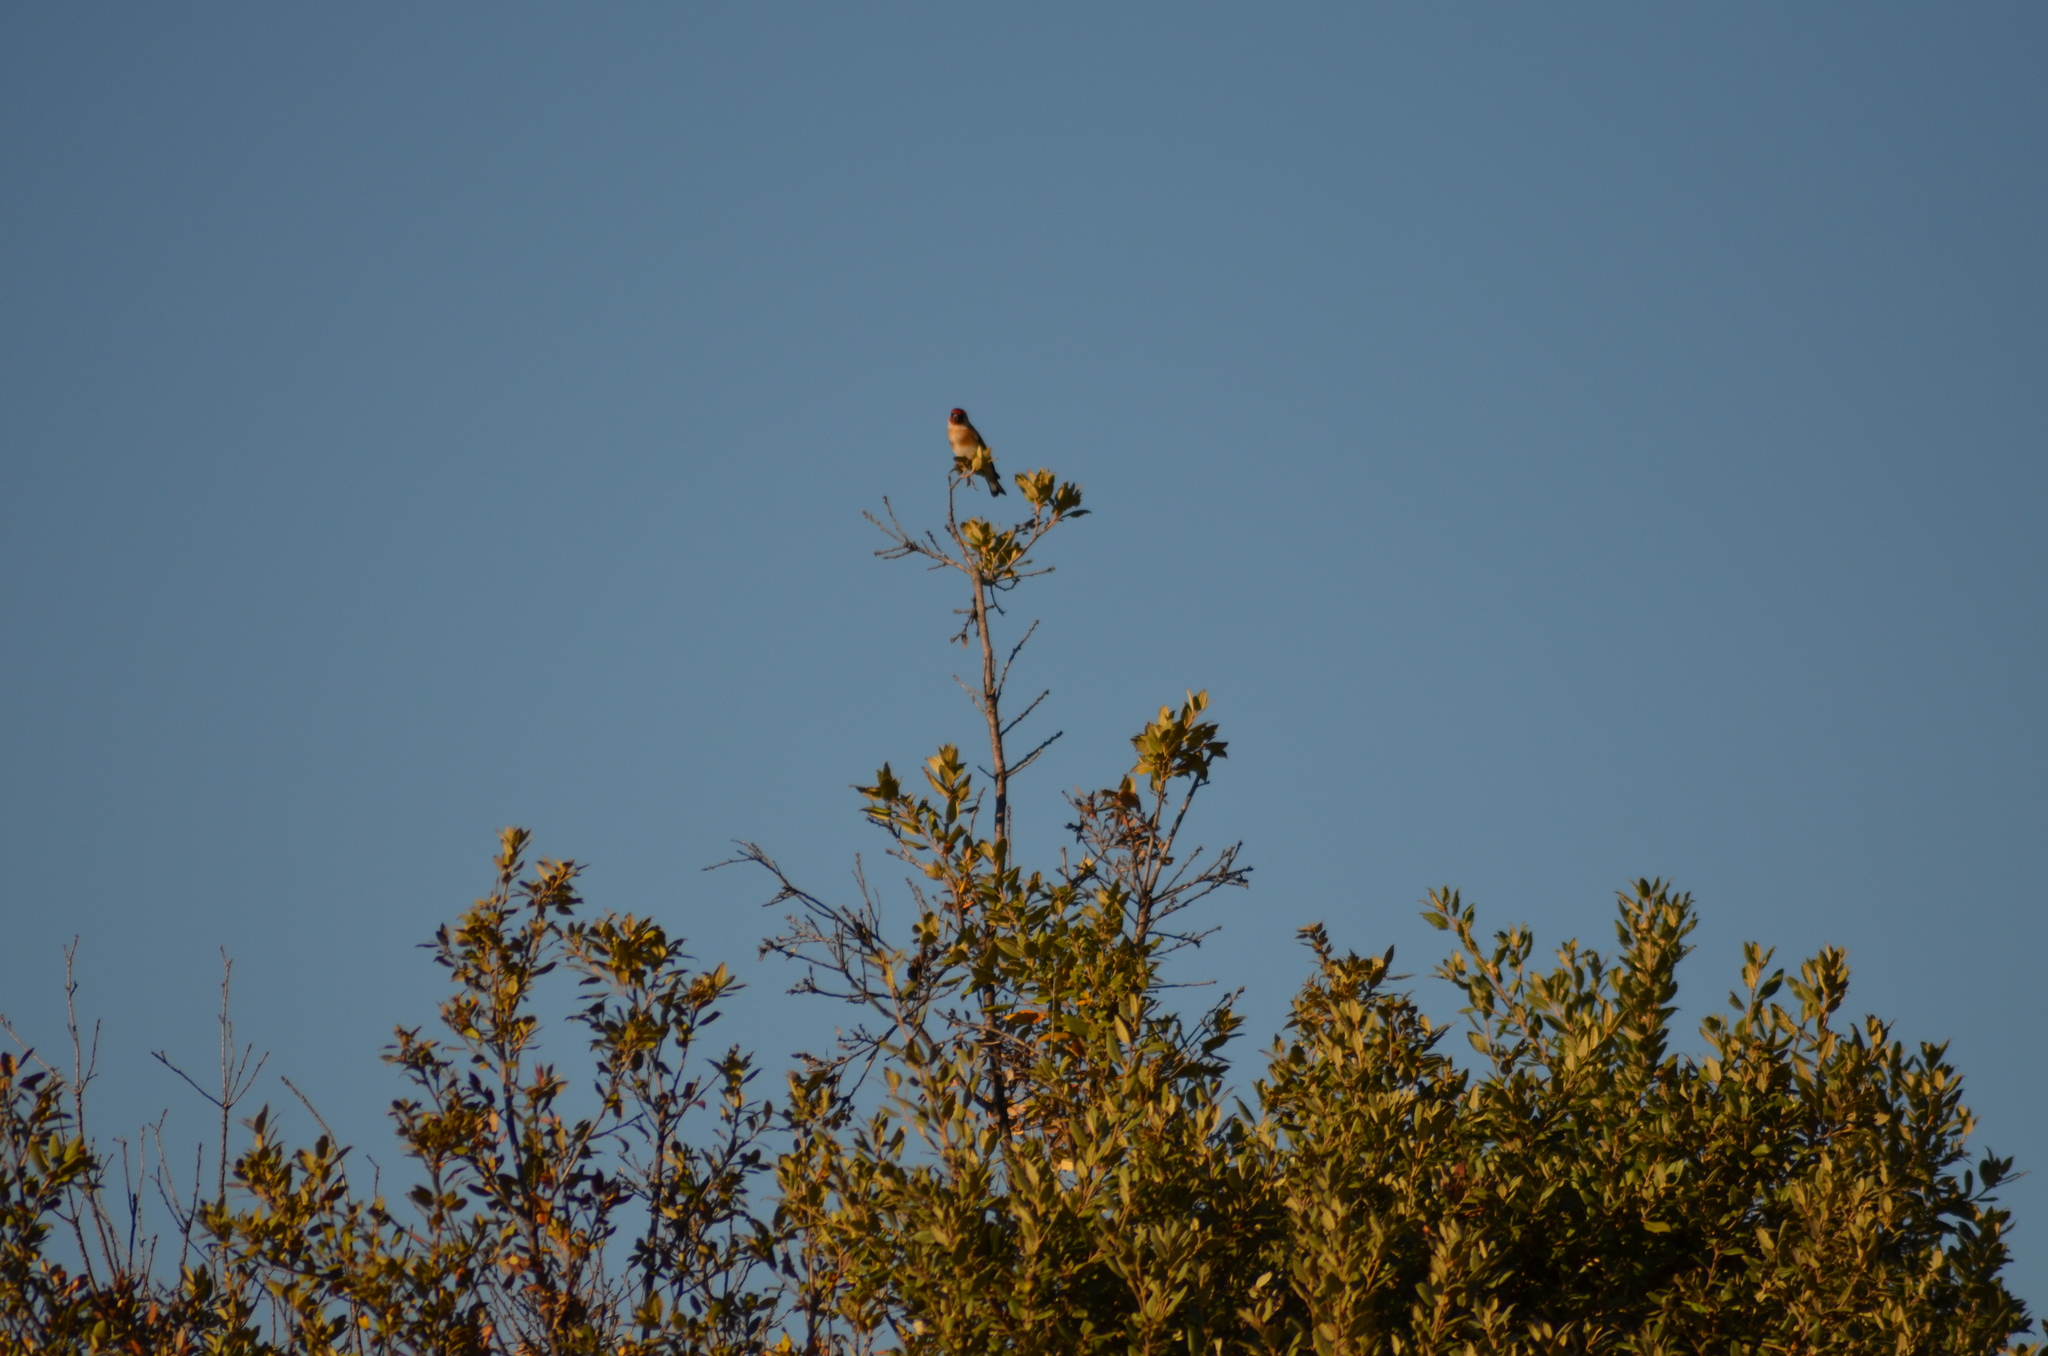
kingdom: Animalia
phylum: Chordata
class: Aves
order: Passeriformes
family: Fringillidae
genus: Carduelis
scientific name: Carduelis carduelis
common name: European goldfinch
